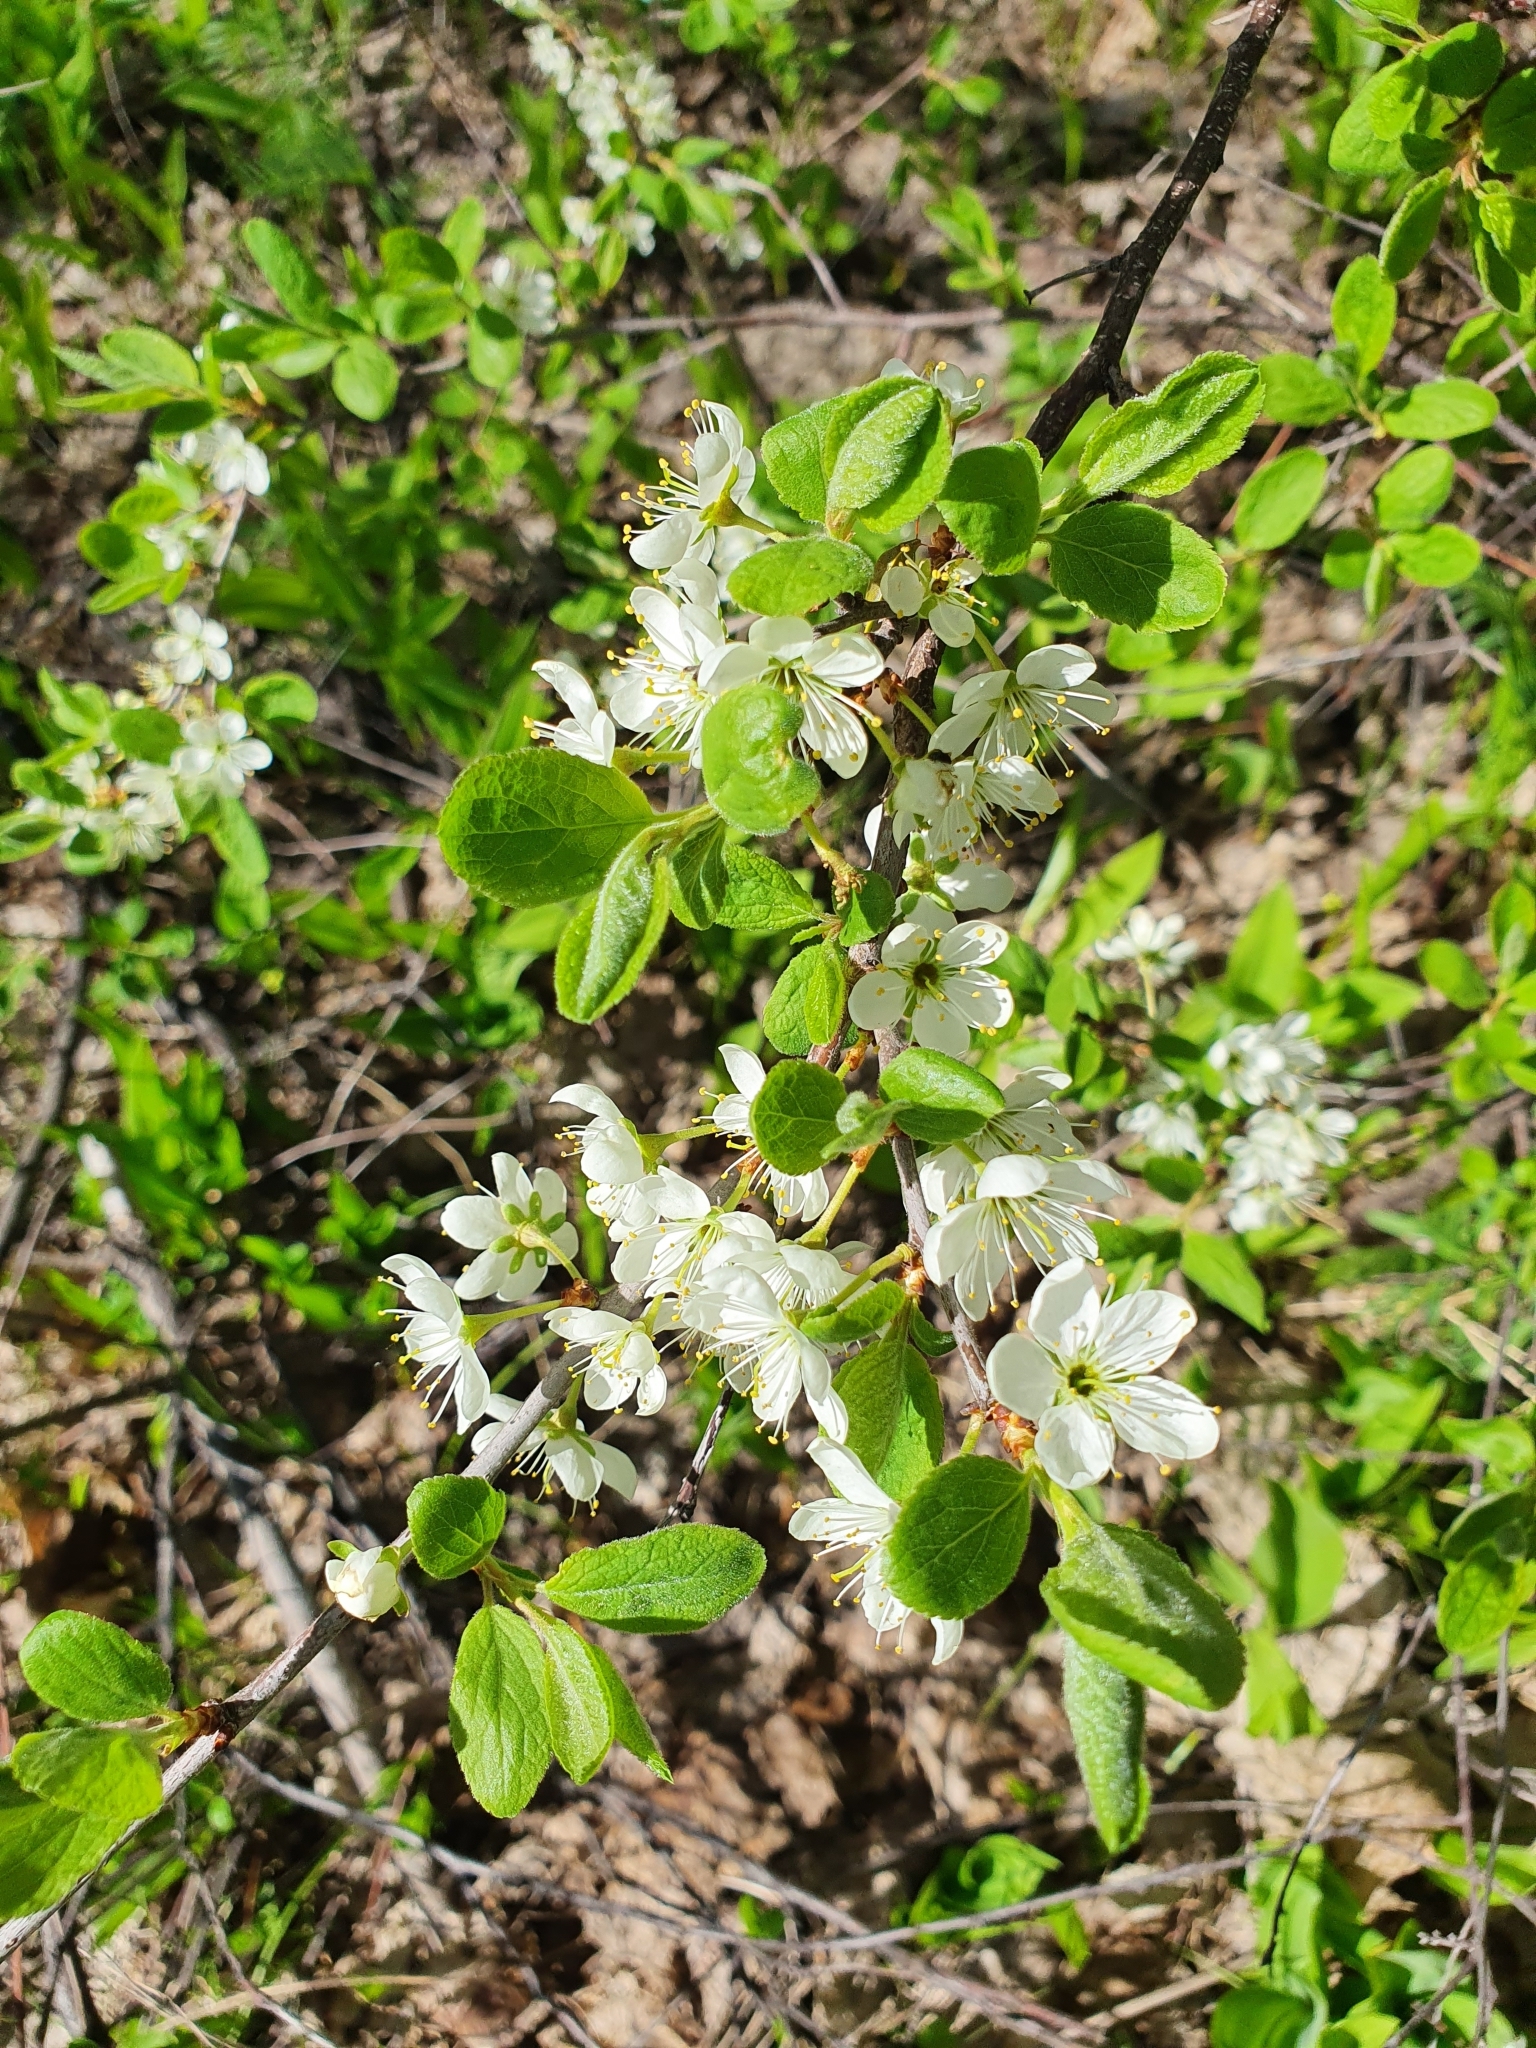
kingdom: Plantae
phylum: Tracheophyta
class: Magnoliopsida
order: Rosales
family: Rosaceae
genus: Prunus
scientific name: Prunus spinosa
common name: Blackthorn
